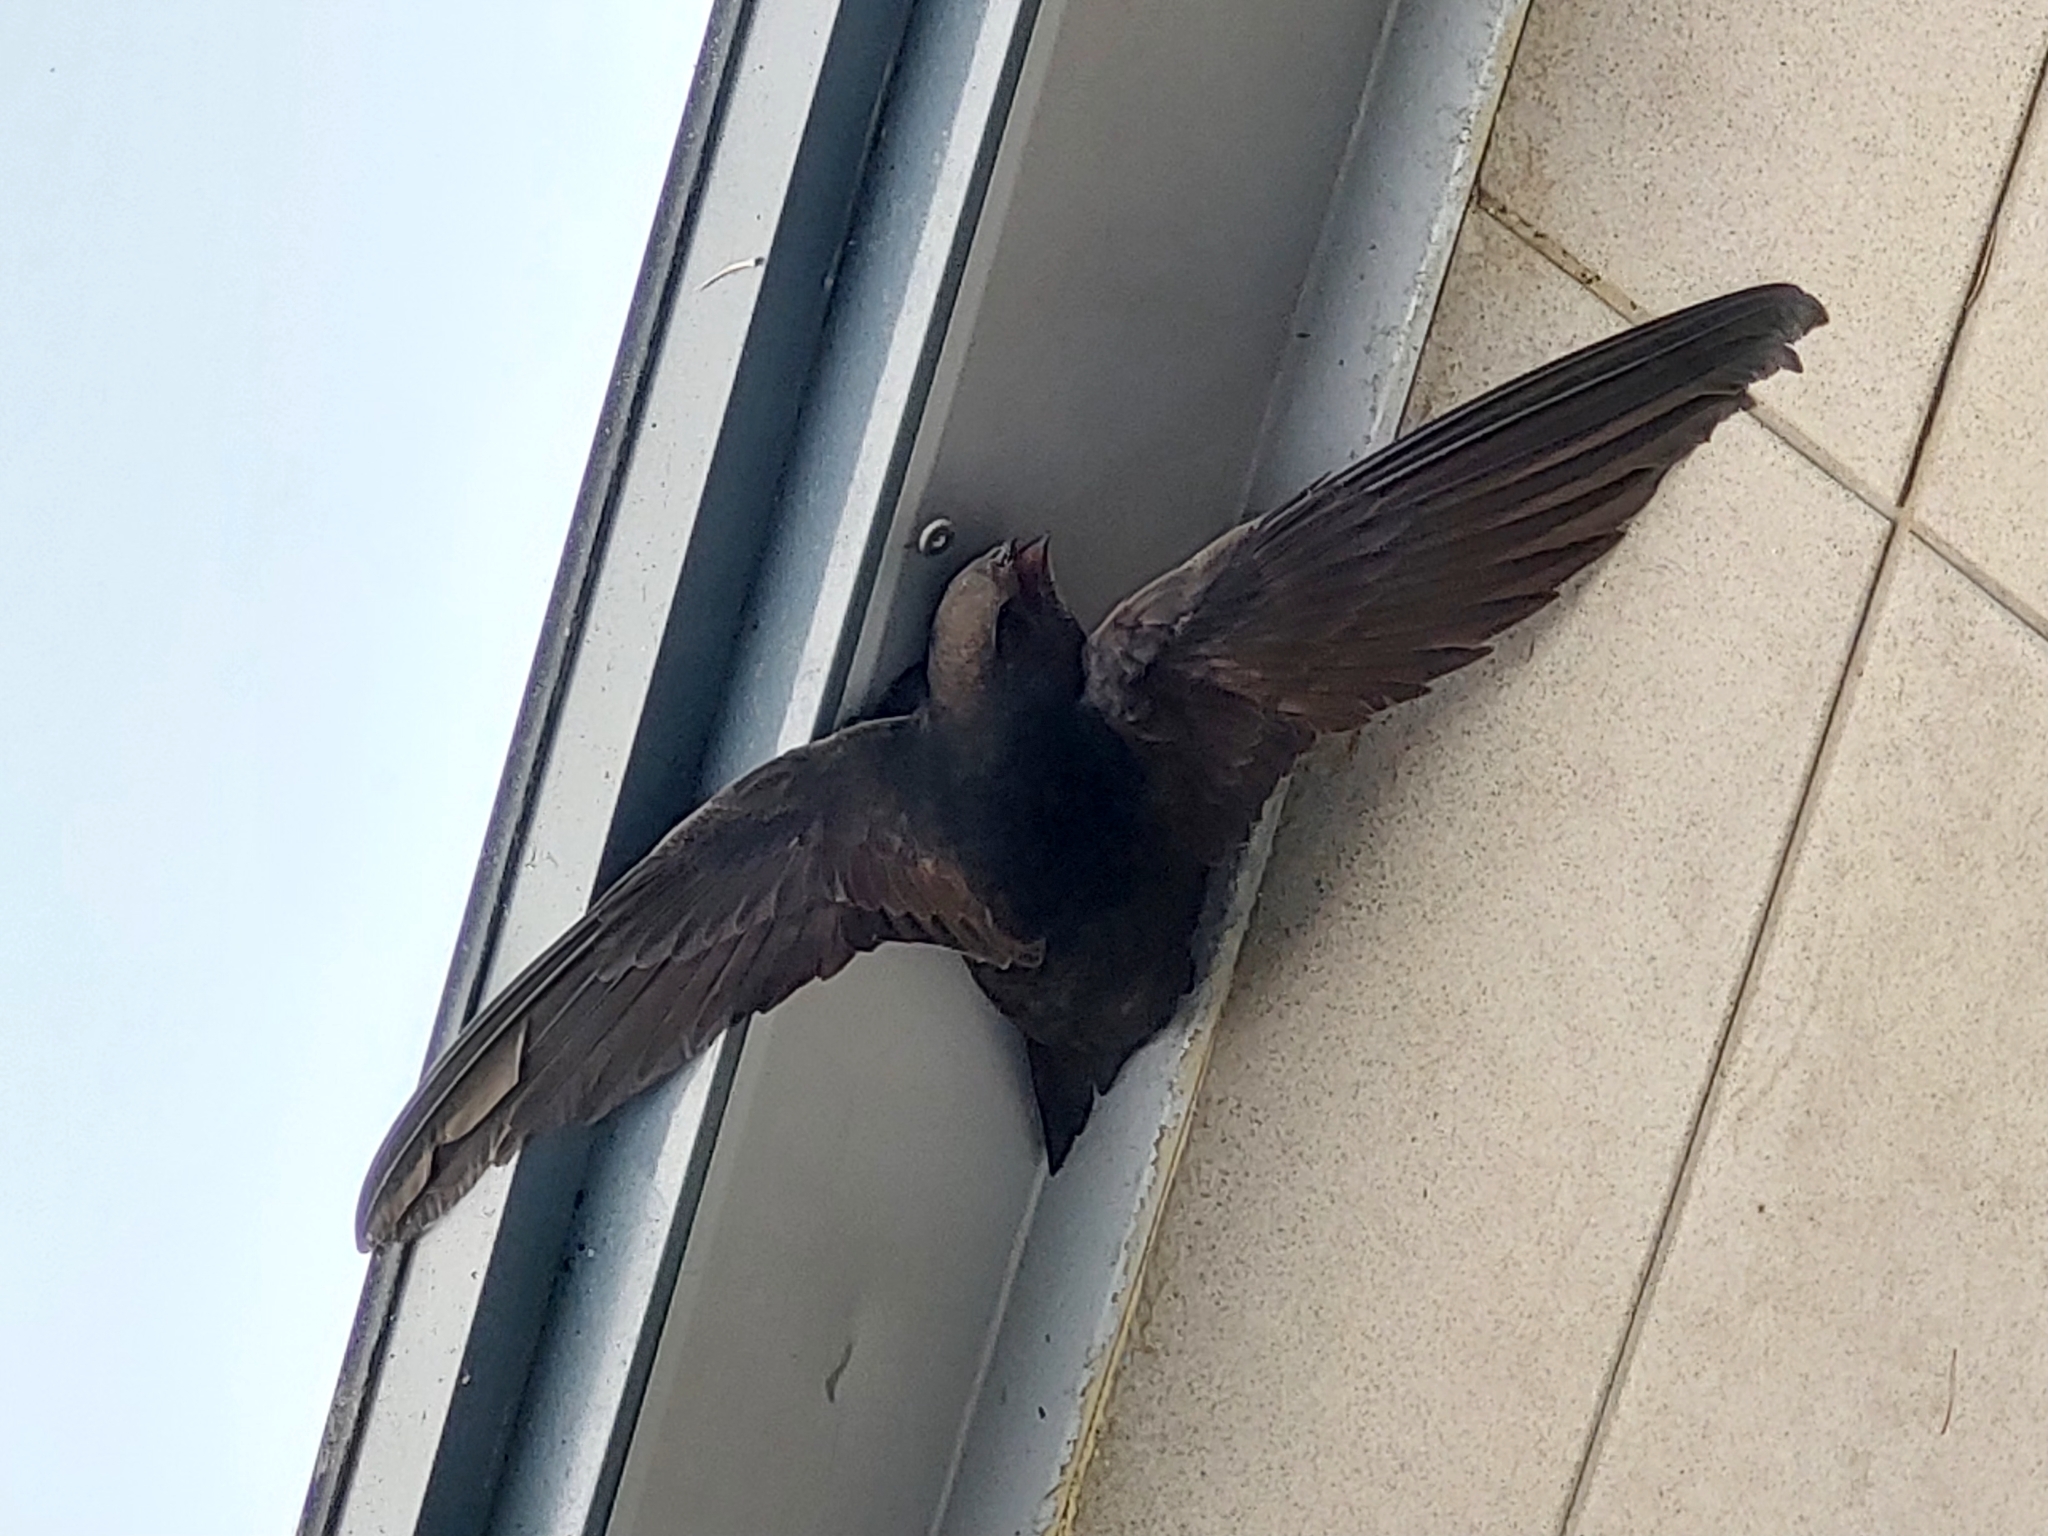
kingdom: Animalia
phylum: Chordata
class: Aves
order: Apodiformes
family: Apodidae
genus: Apus
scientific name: Apus apus
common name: Common swift
